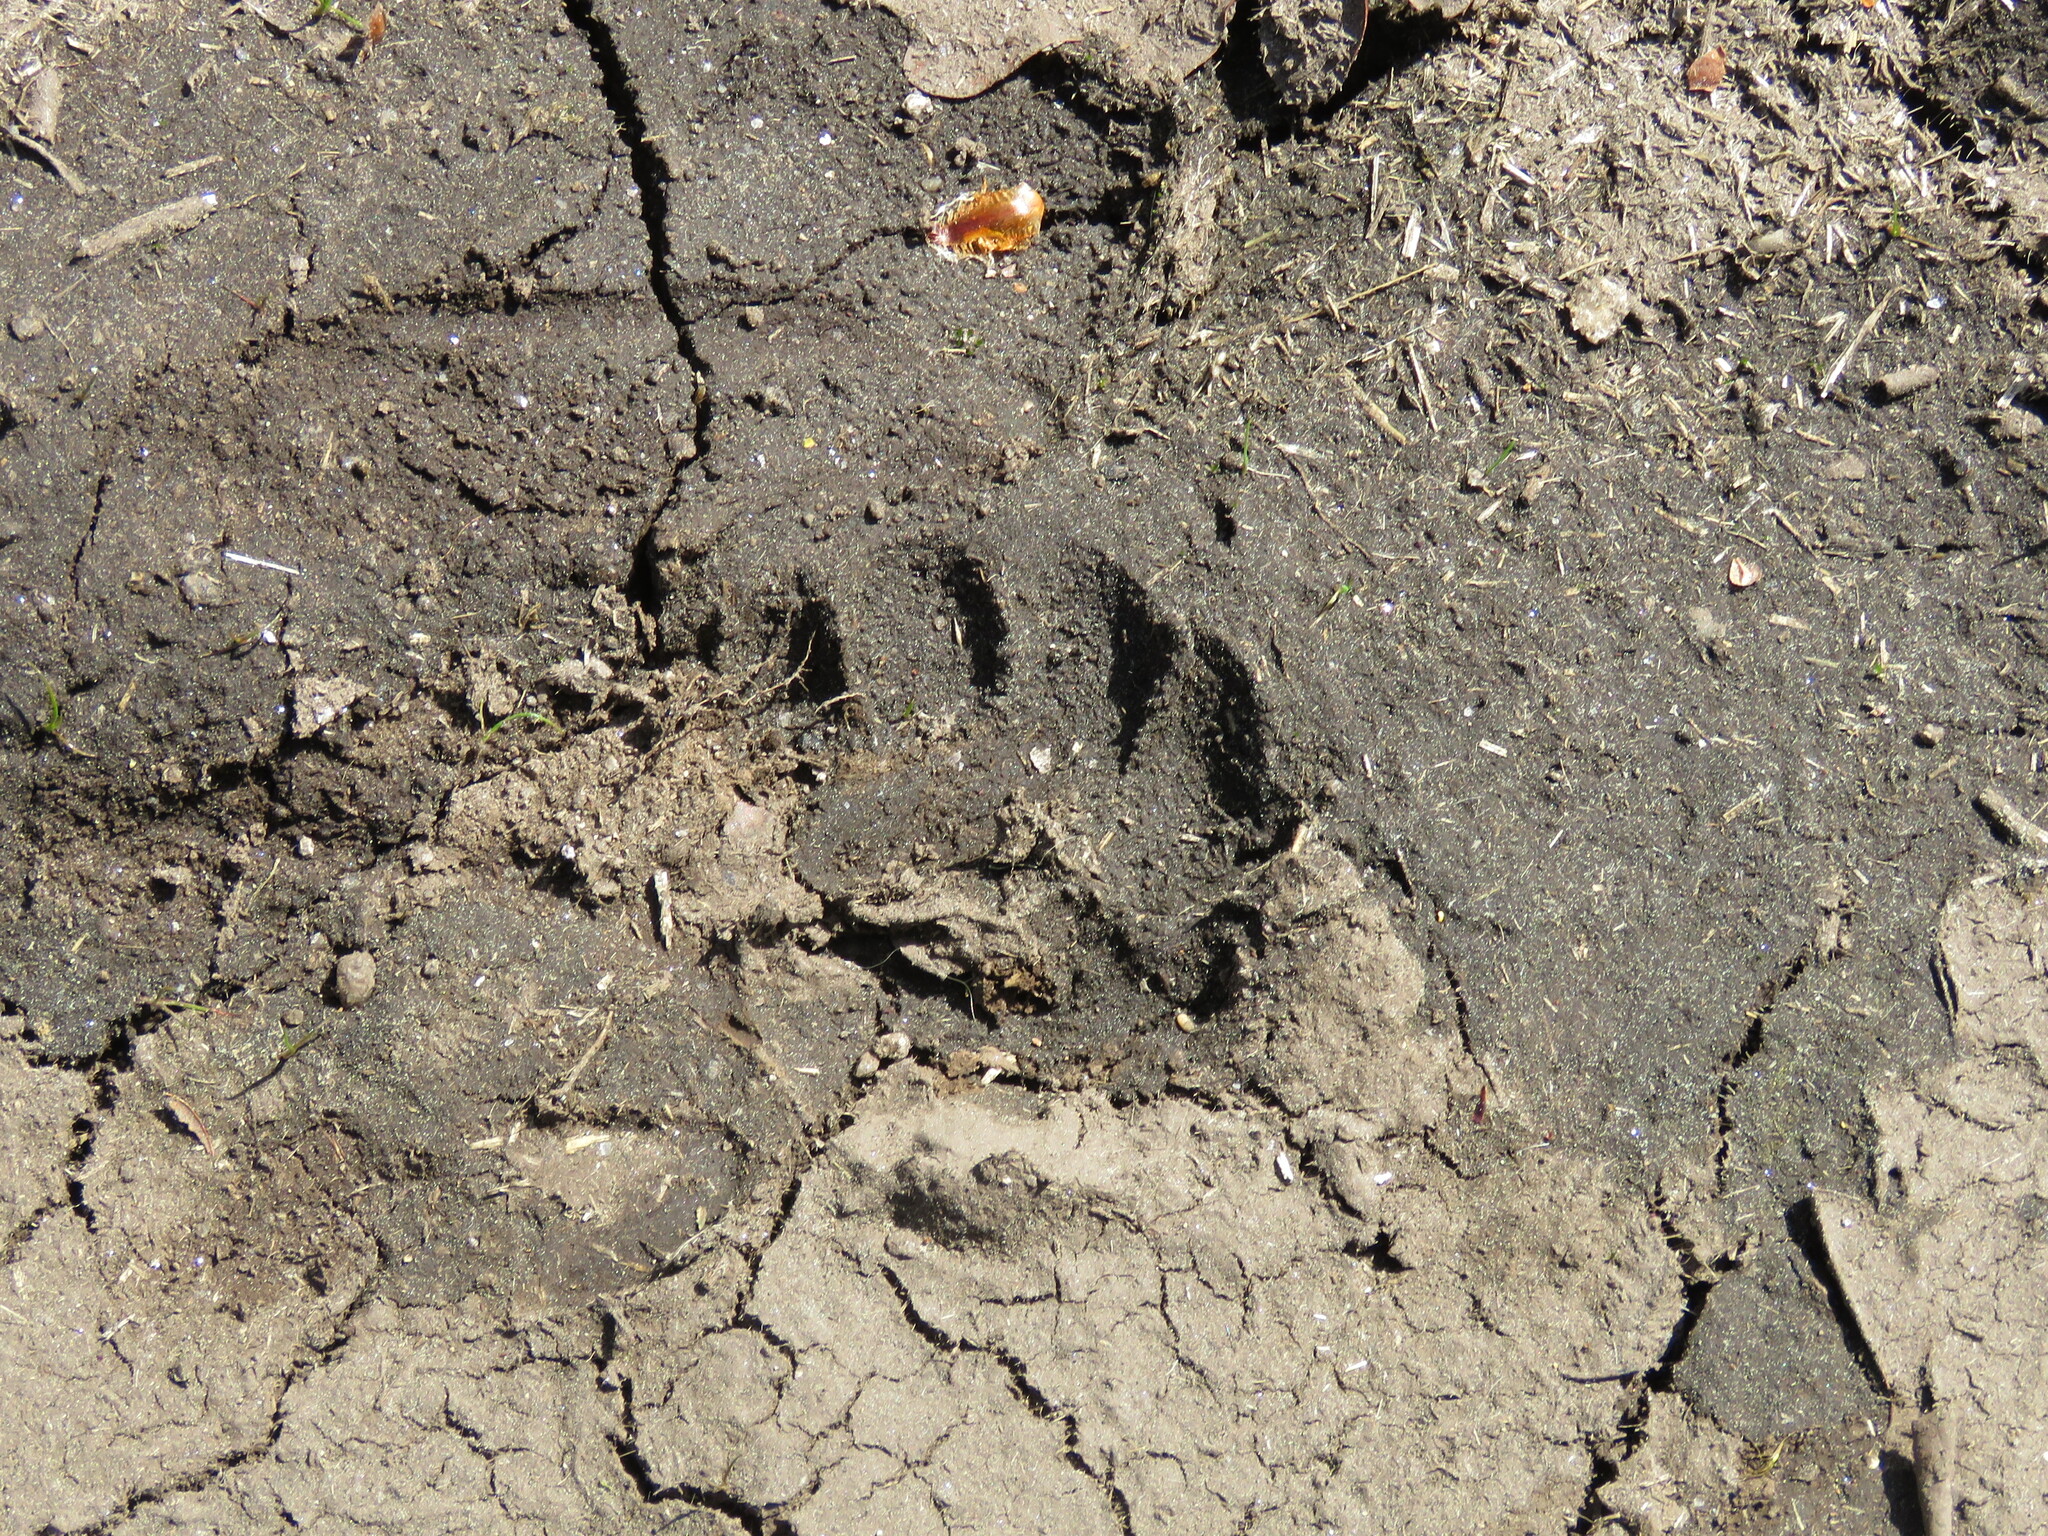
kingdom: Animalia
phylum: Chordata
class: Mammalia
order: Carnivora
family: Mustelidae
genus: Meles
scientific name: Meles meles
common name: Eurasian badger
